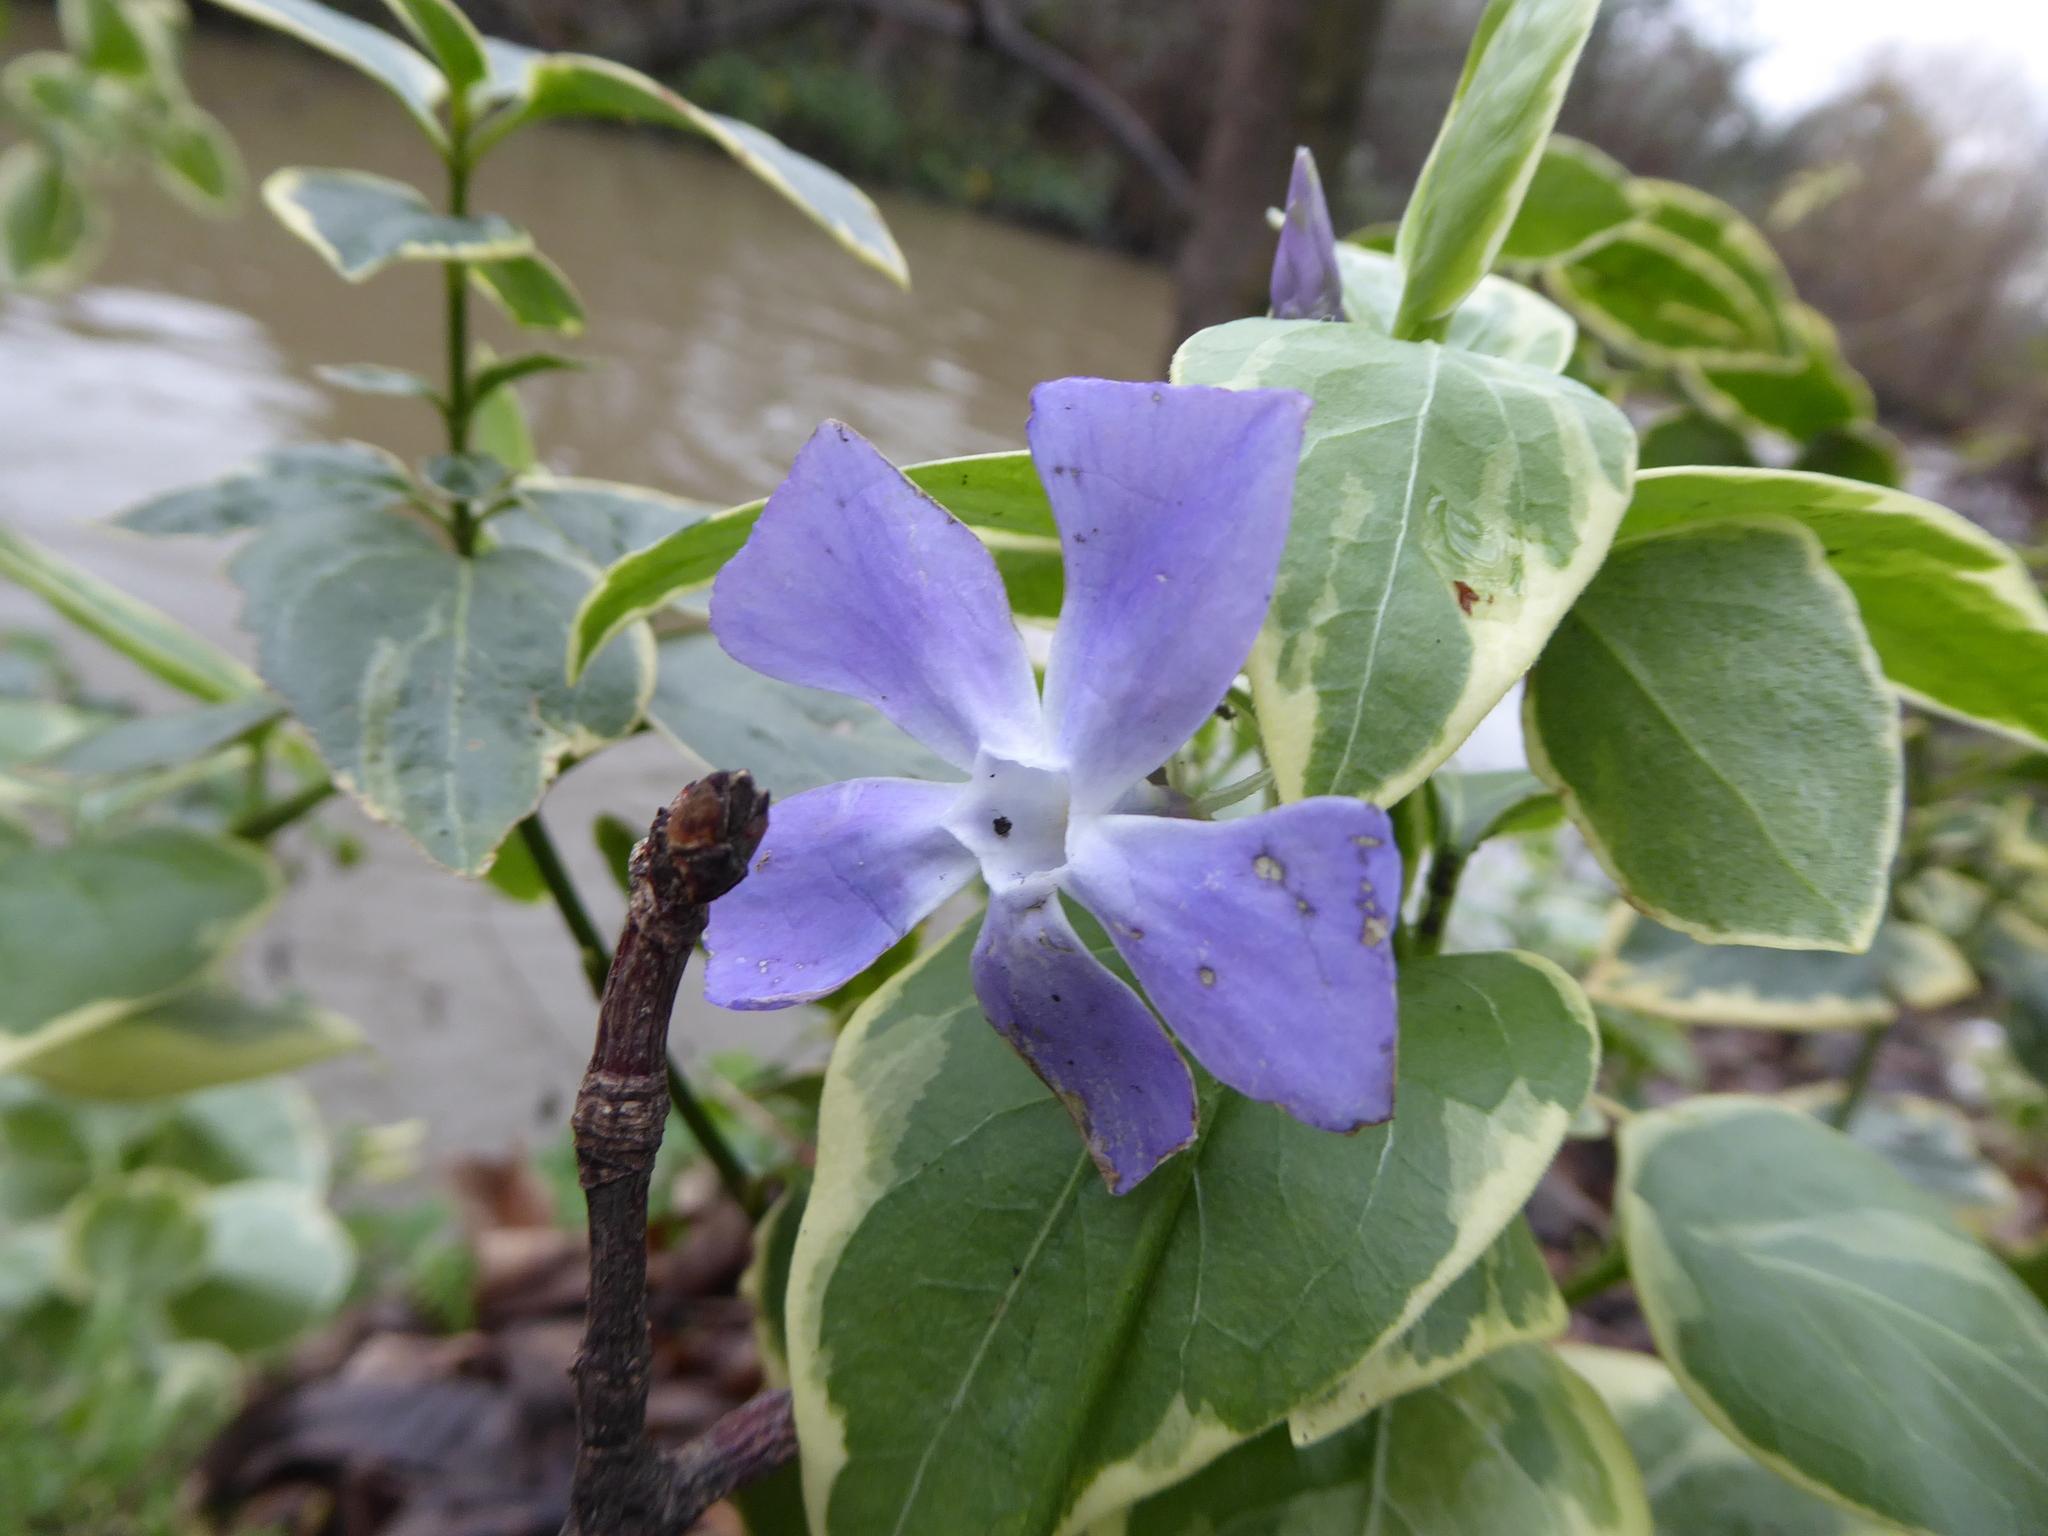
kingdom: Plantae
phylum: Tracheophyta
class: Magnoliopsida
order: Gentianales
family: Apocynaceae
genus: Vinca
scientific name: Vinca major
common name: Greater periwinkle
